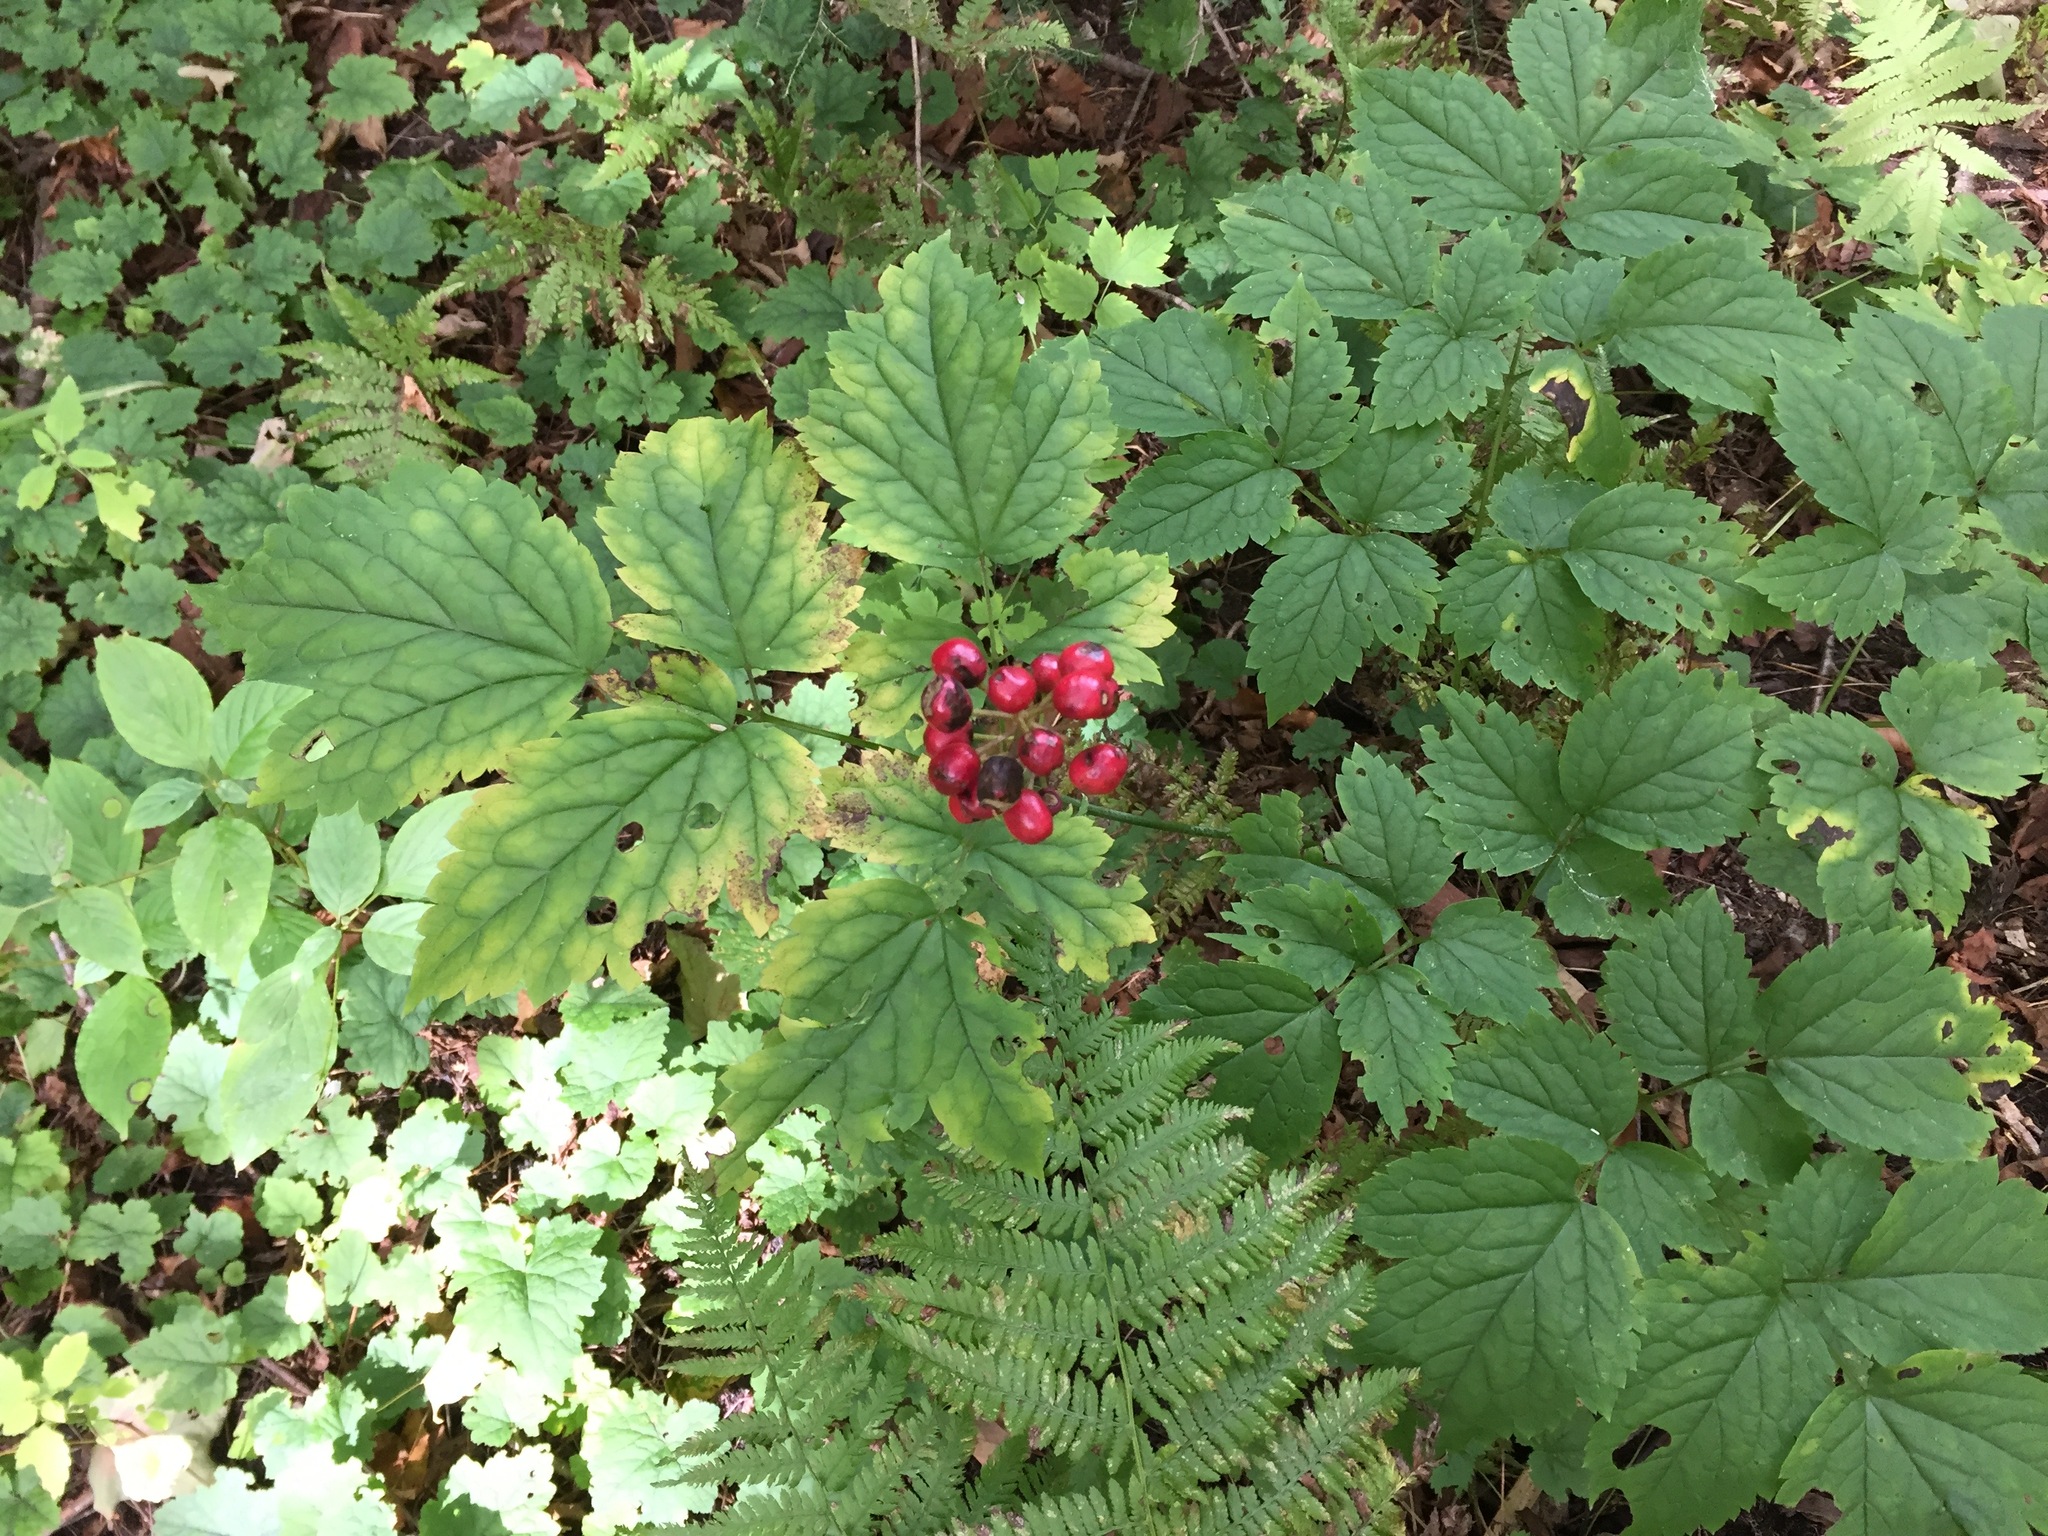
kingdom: Plantae
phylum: Tracheophyta
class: Magnoliopsida
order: Ranunculales
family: Ranunculaceae
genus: Actaea
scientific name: Actaea rubra
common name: Red baneberry
